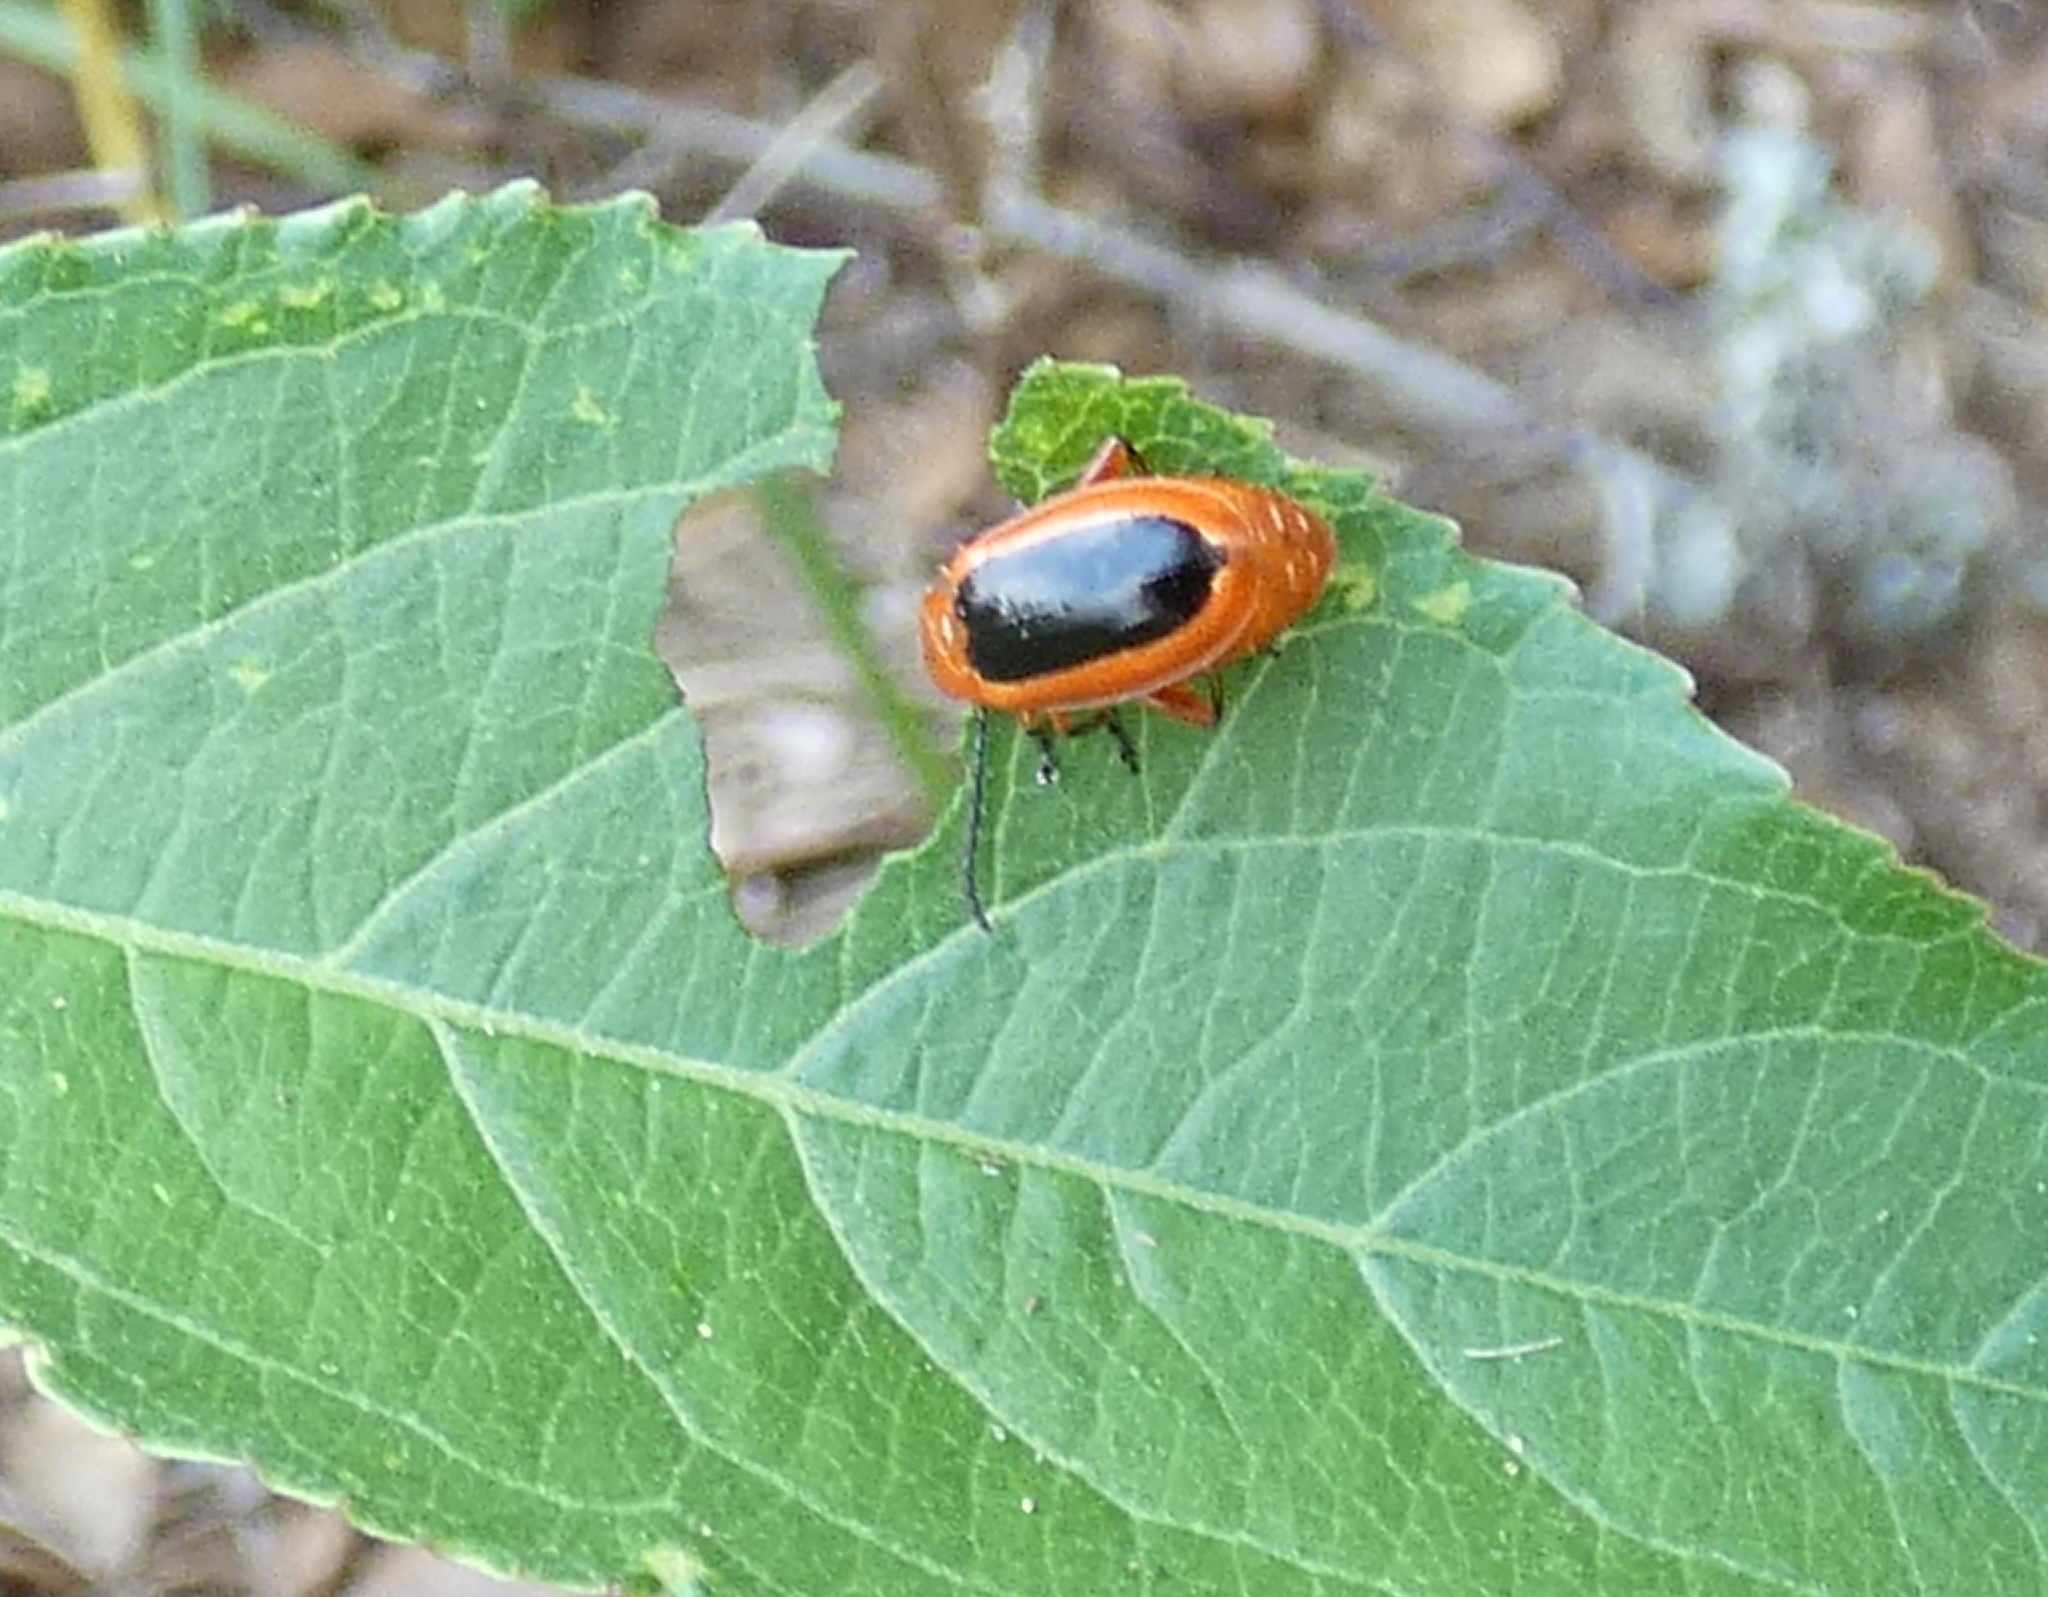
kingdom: Animalia
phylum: Arthropoda
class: Insecta
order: Coleoptera
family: Chrysomelidae
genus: Disonycha
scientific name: Disonycha discoidea
